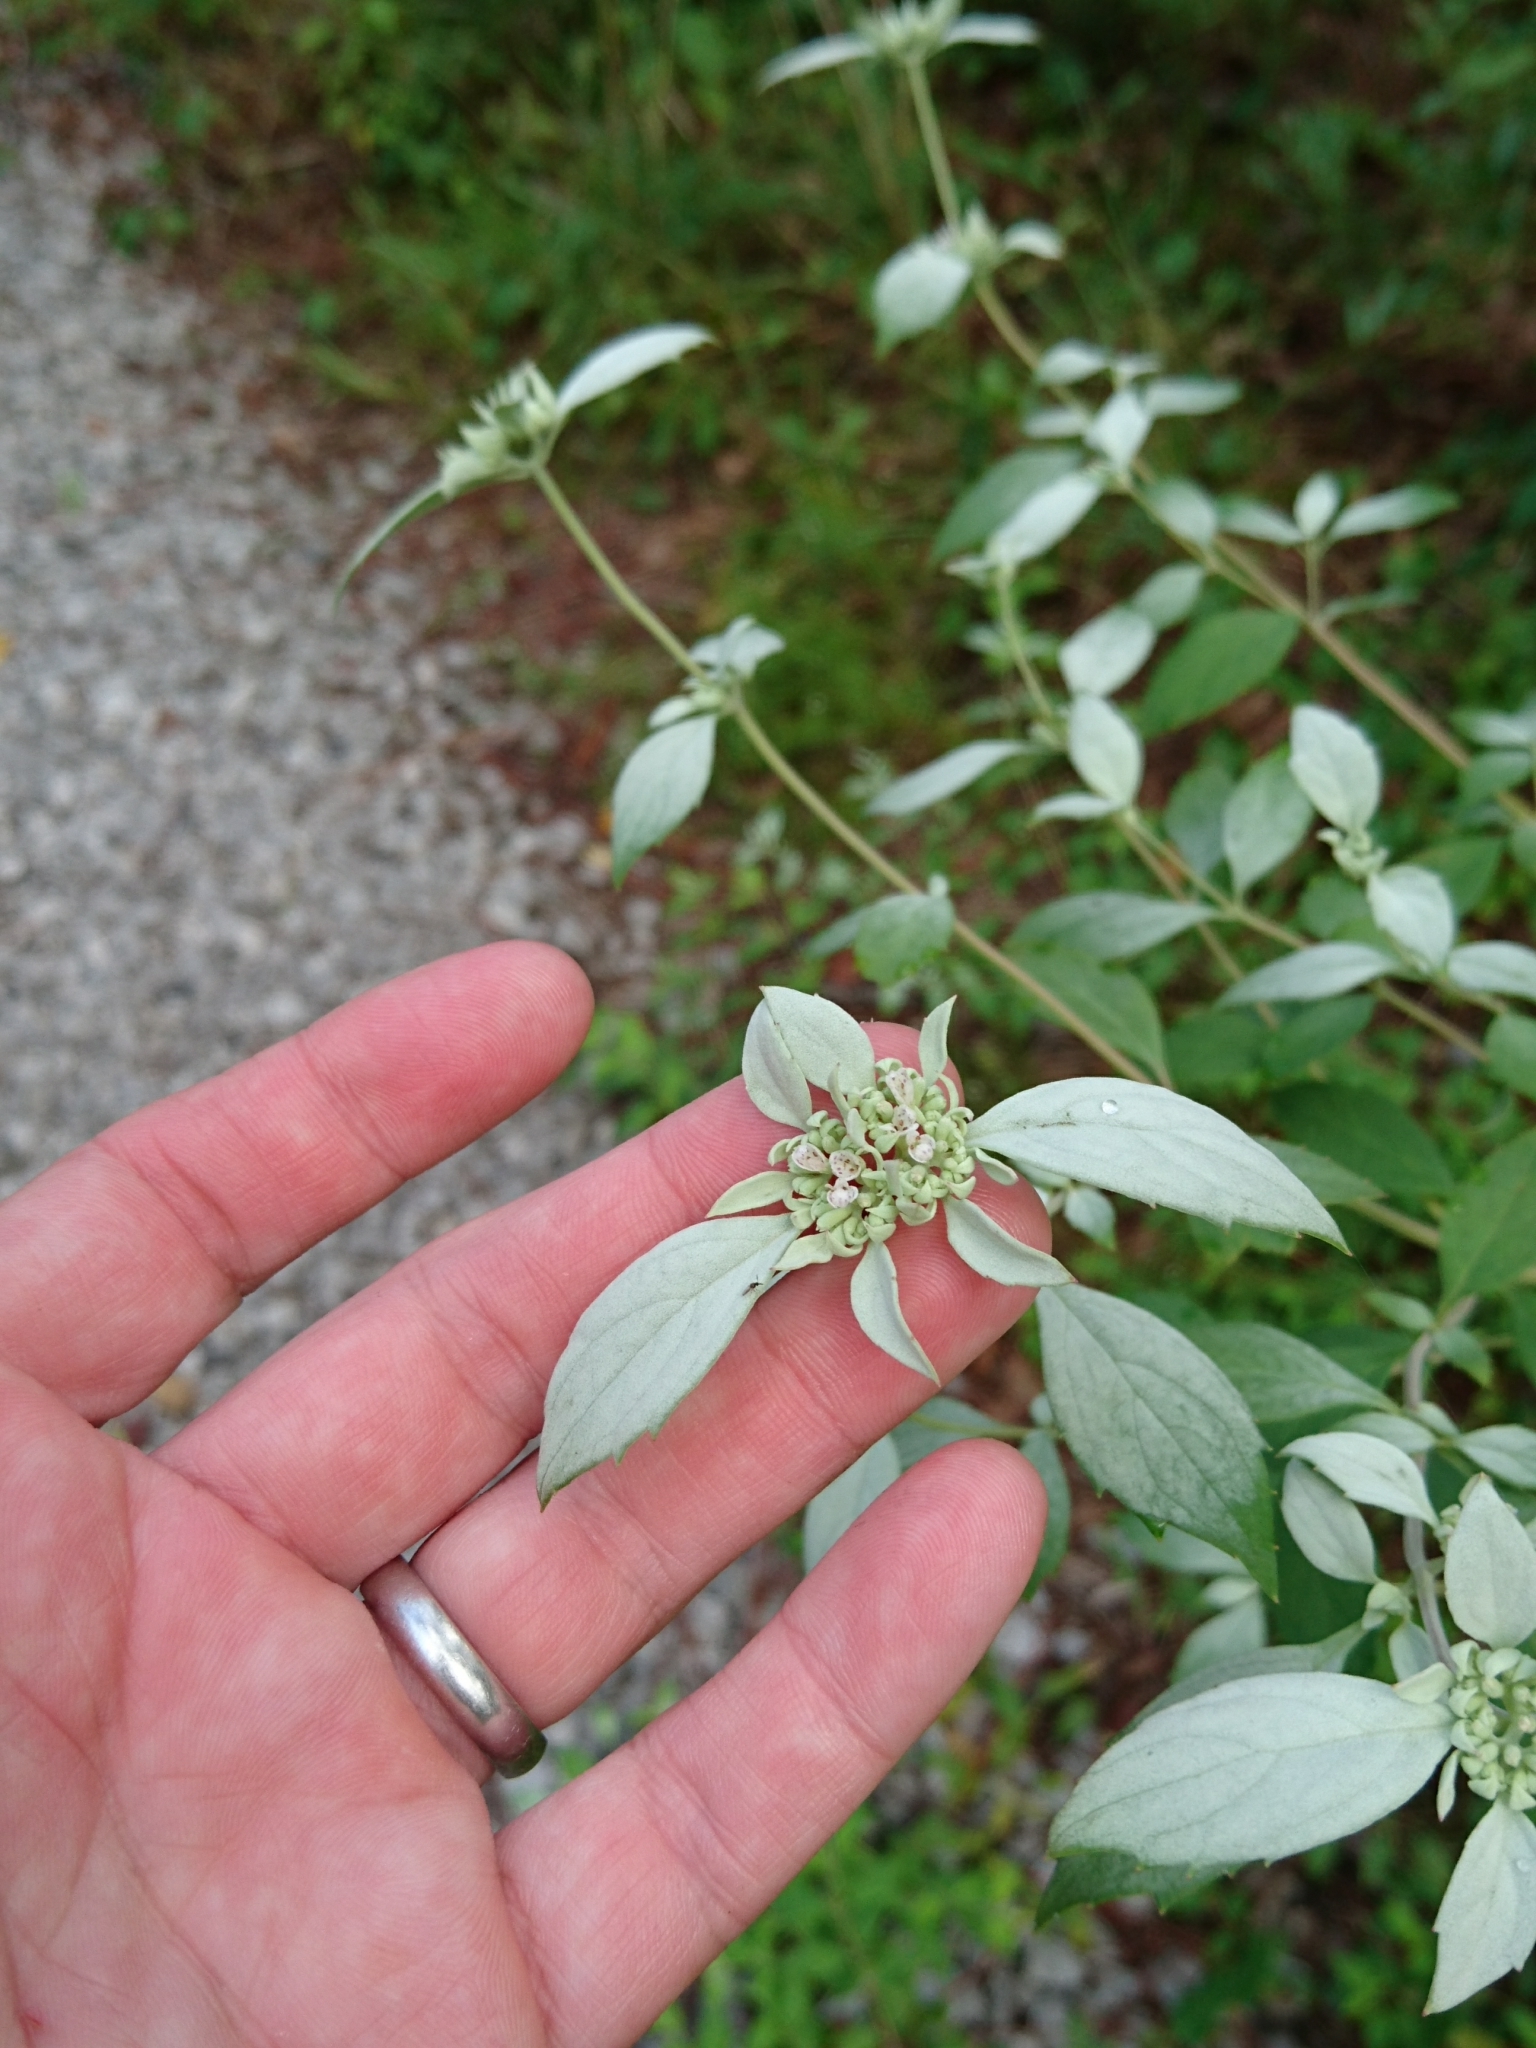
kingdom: Plantae
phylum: Tracheophyta
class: Magnoliopsida
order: Lamiales
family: Lamiaceae
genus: Pycnanthemum
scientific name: Pycnanthemum albescens
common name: White-leaf mountain-mint
